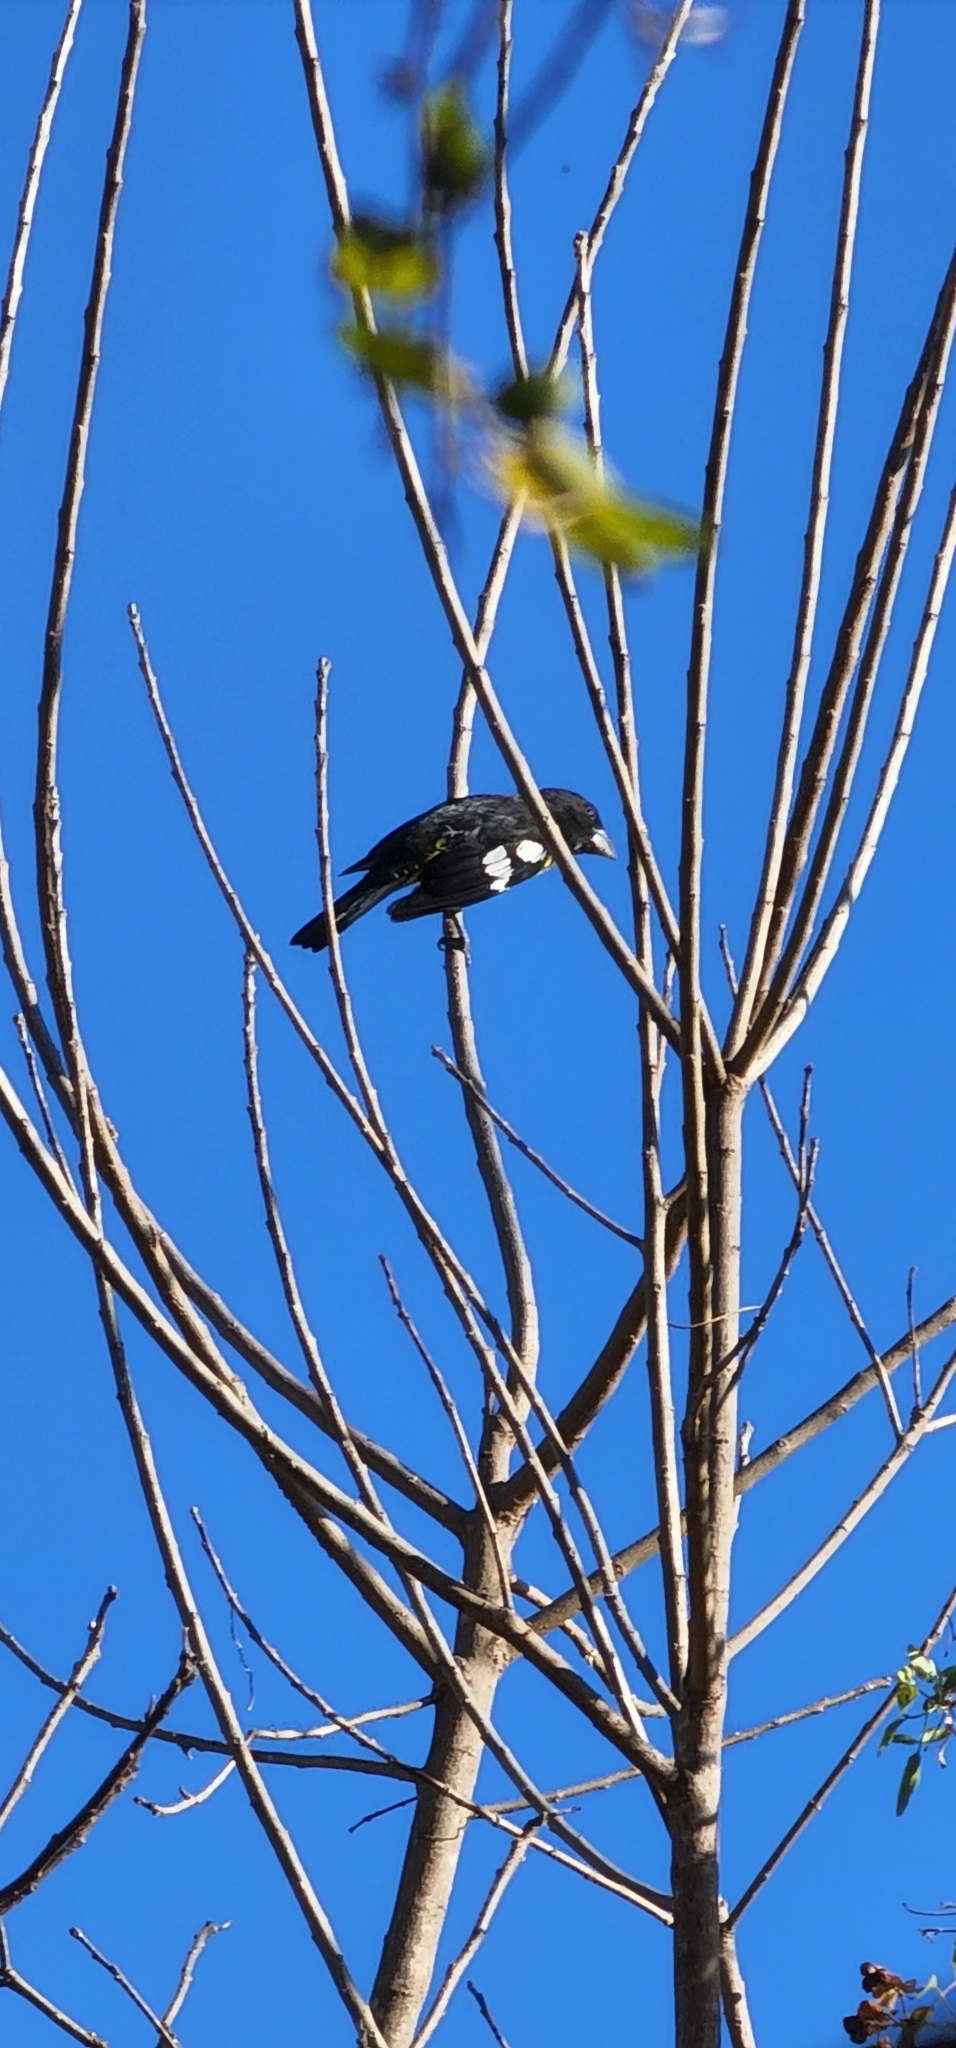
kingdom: Animalia
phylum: Chordata
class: Aves
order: Passeriformes
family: Cardinalidae
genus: Pheucticus
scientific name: Pheucticus aureoventris
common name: Black-backed grosbeak
